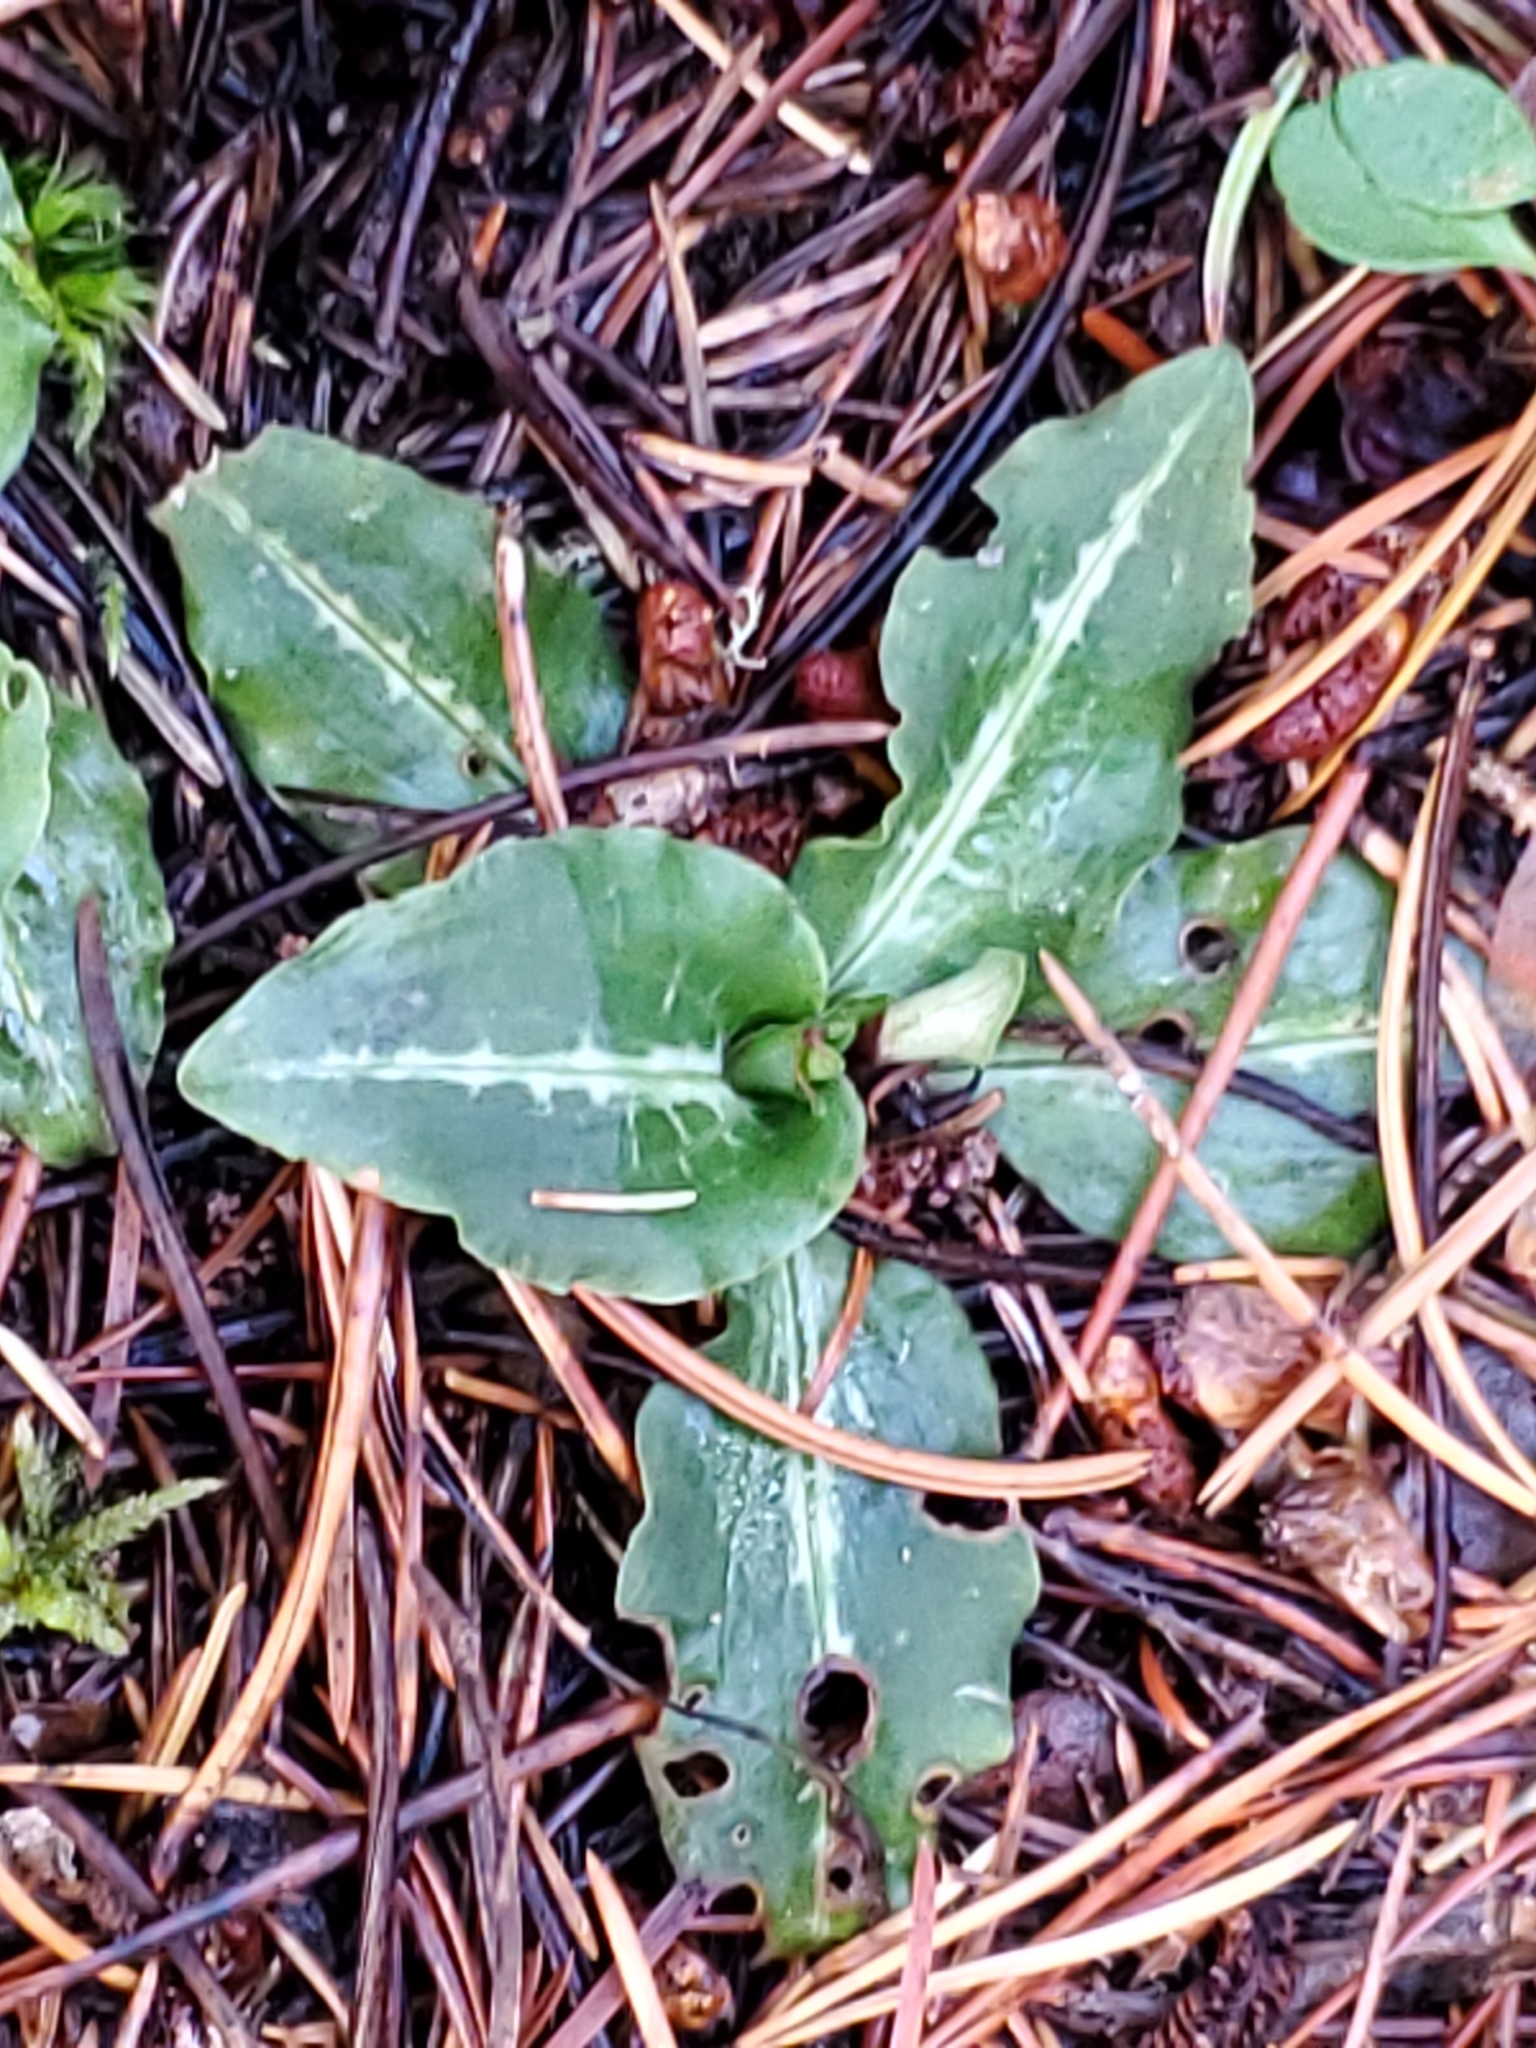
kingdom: Plantae
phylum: Tracheophyta
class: Liliopsida
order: Asparagales
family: Orchidaceae
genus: Goodyera
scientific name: Goodyera oblongifolia
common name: Giant rattlesnake-plantain
